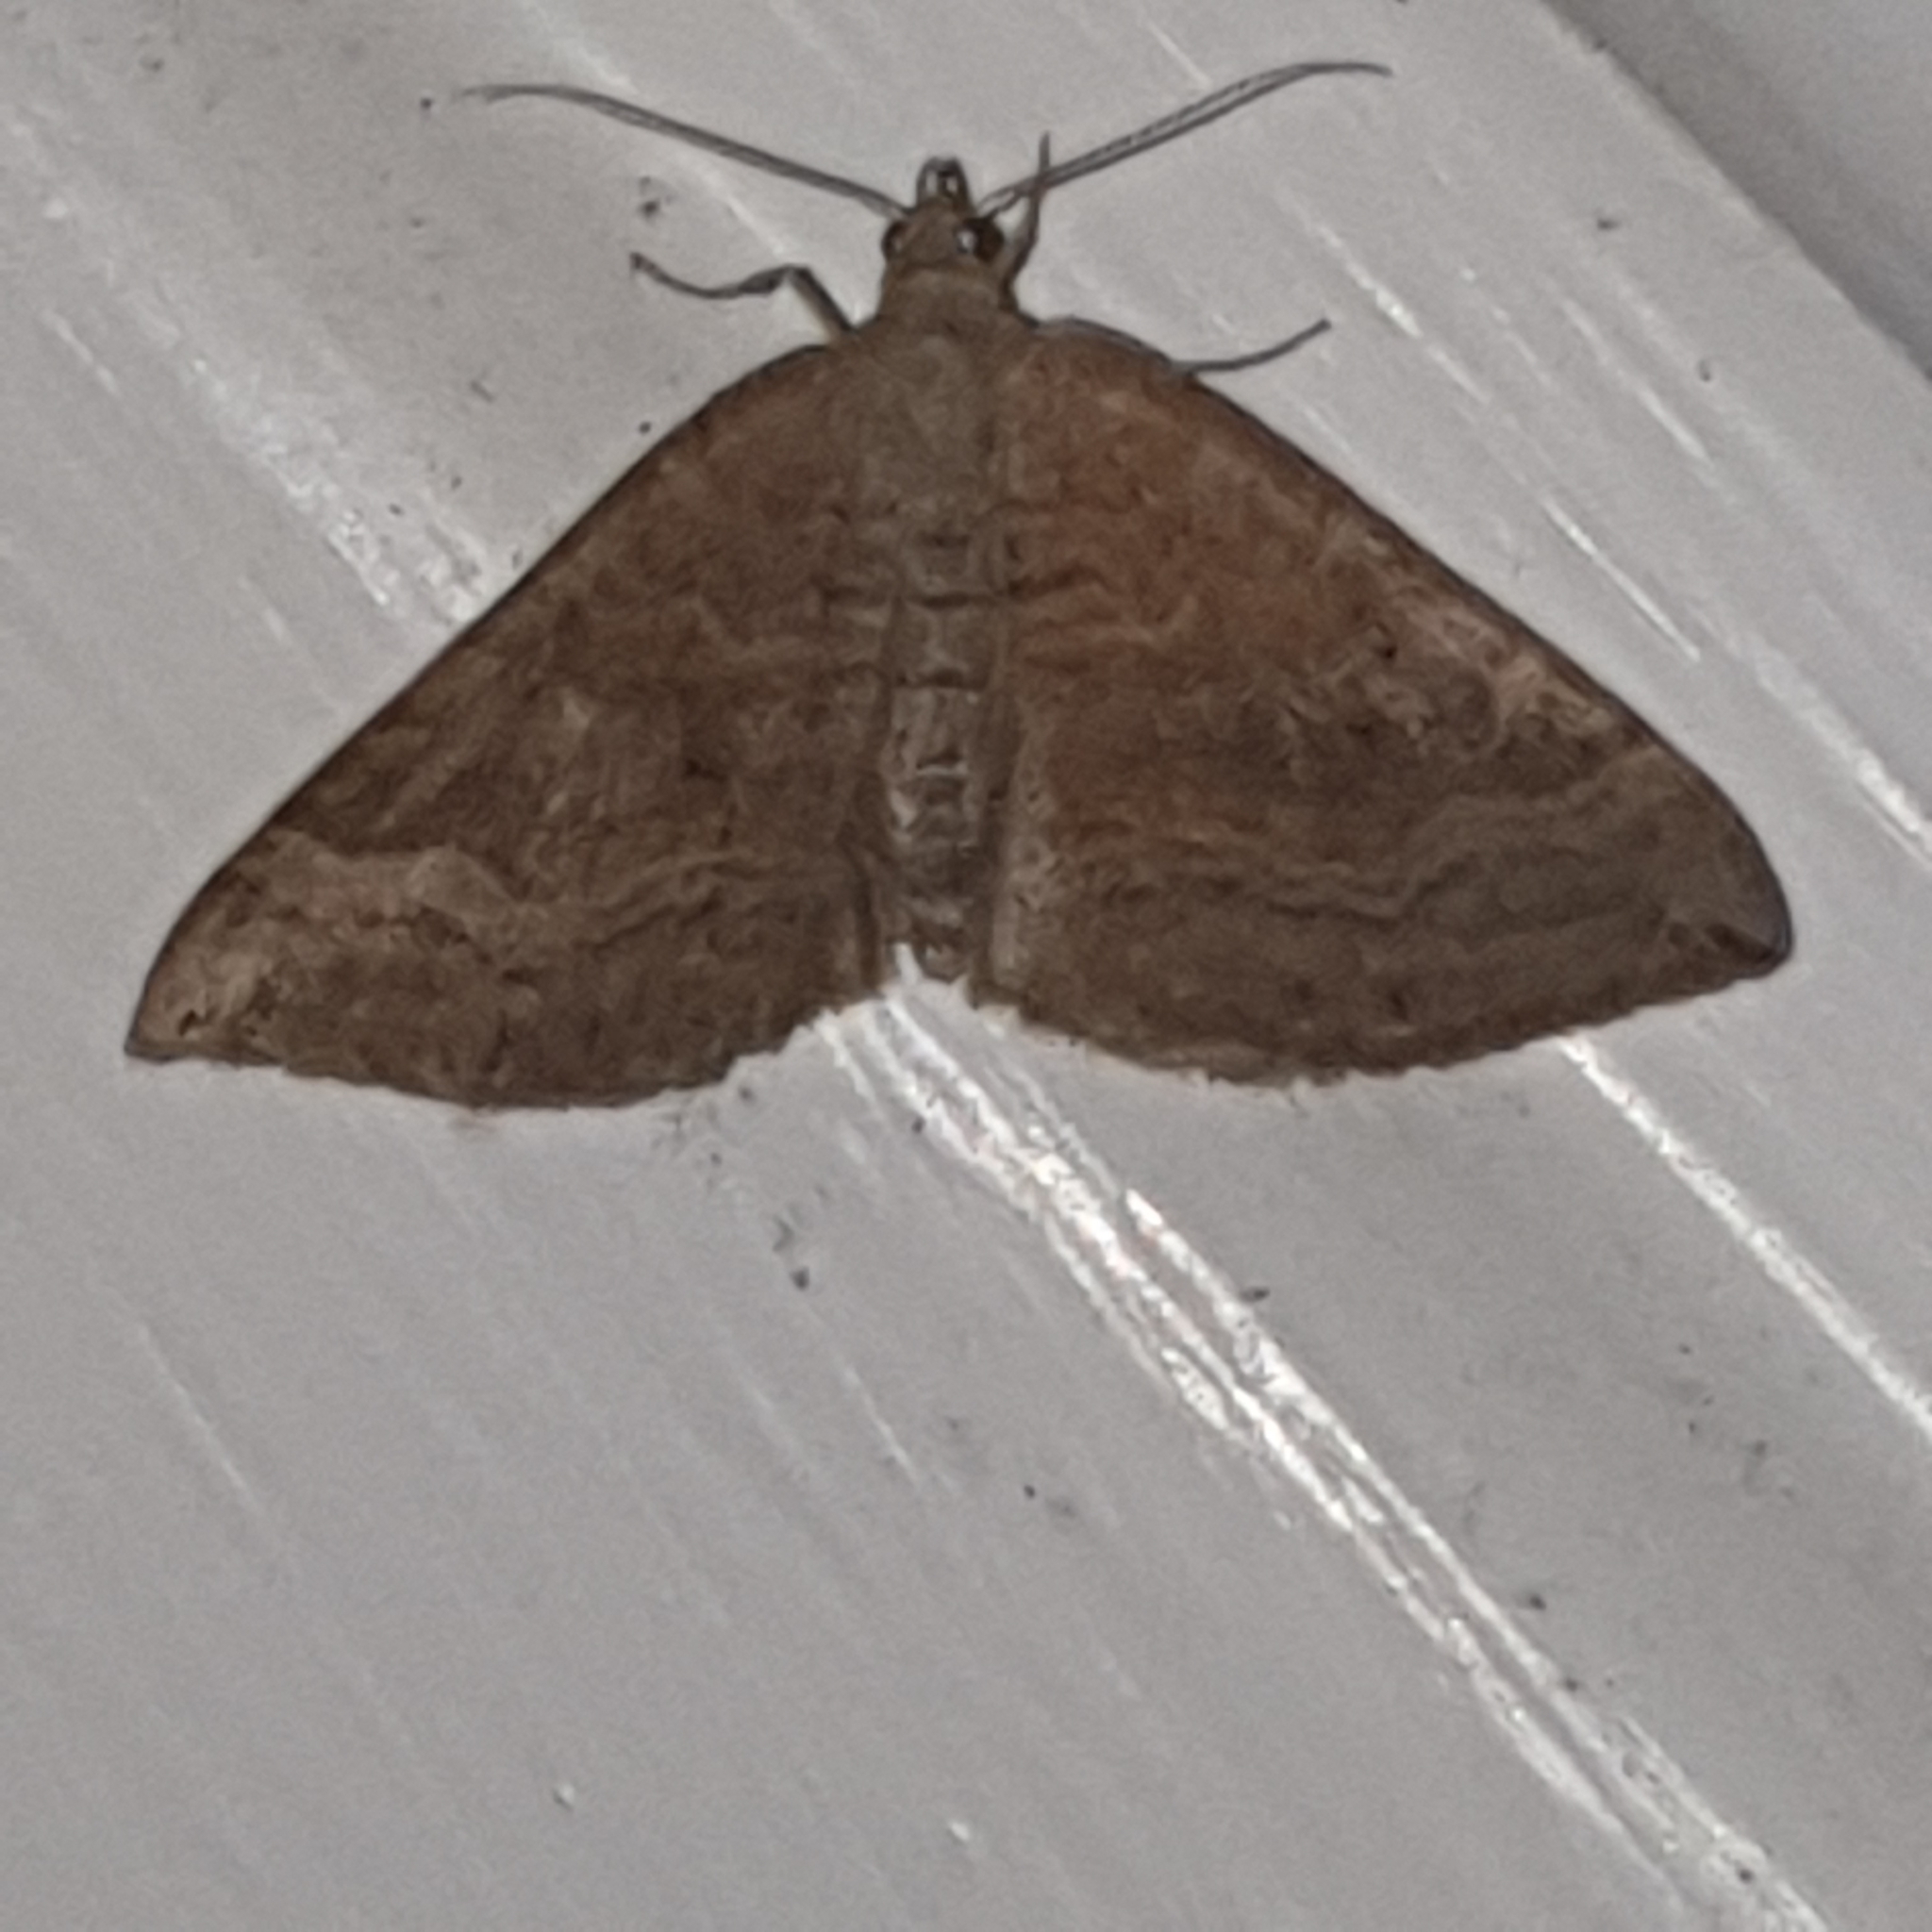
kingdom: Animalia
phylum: Arthropoda
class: Insecta
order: Lepidoptera
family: Geometridae
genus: Scotopteryx
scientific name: Scotopteryx chenopodiata
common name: Shaded broad-bar
